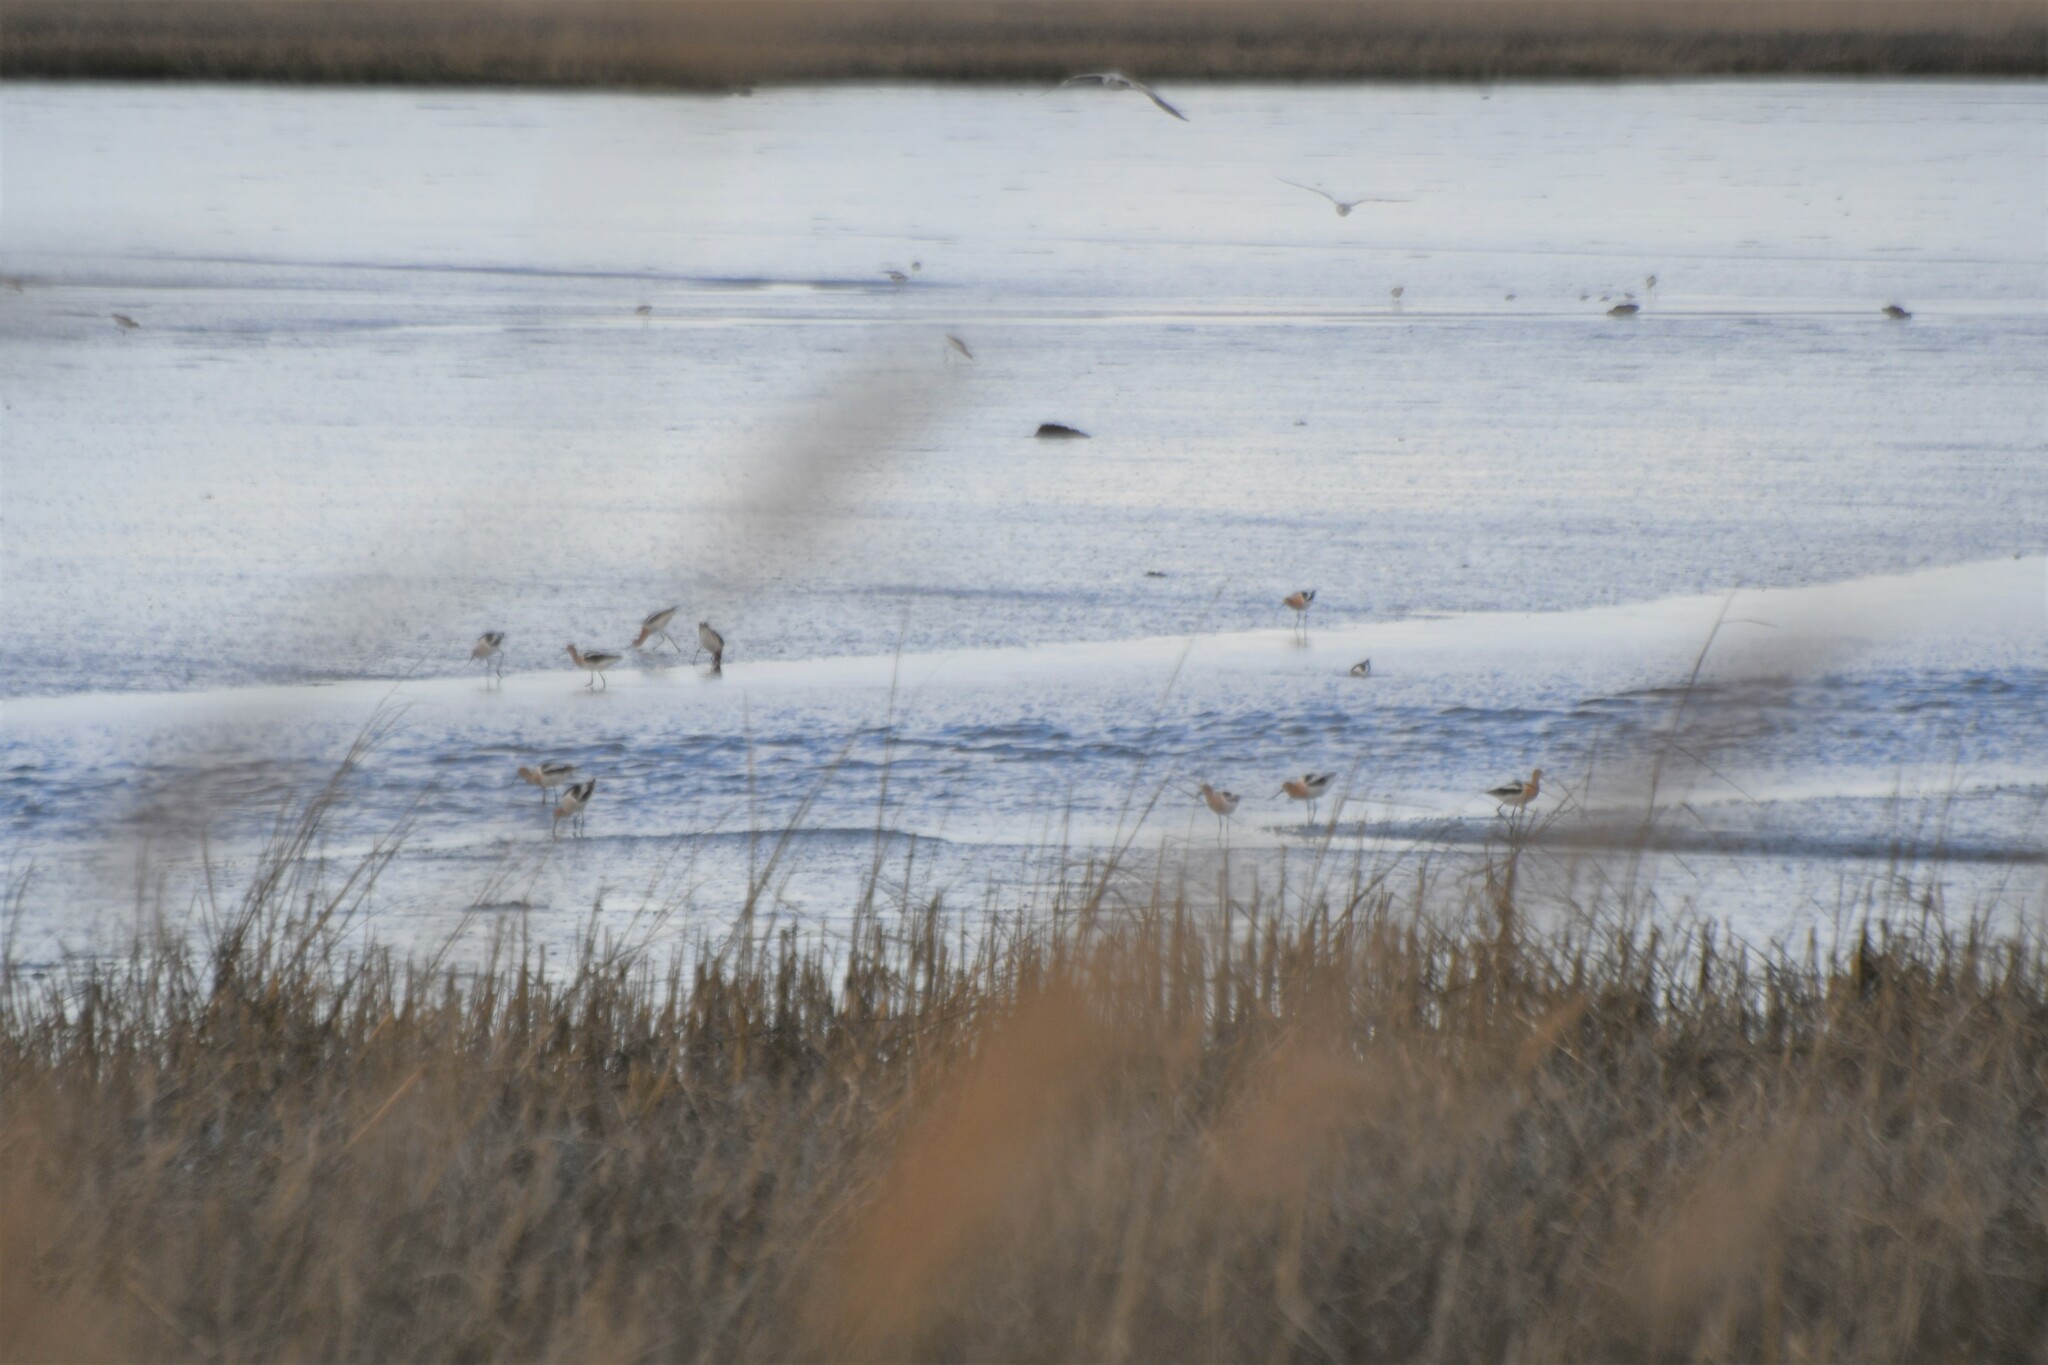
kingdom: Animalia
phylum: Chordata
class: Aves
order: Charadriiformes
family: Recurvirostridae
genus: Recurvirostra
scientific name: Recurvirostra americana
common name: American avocet
